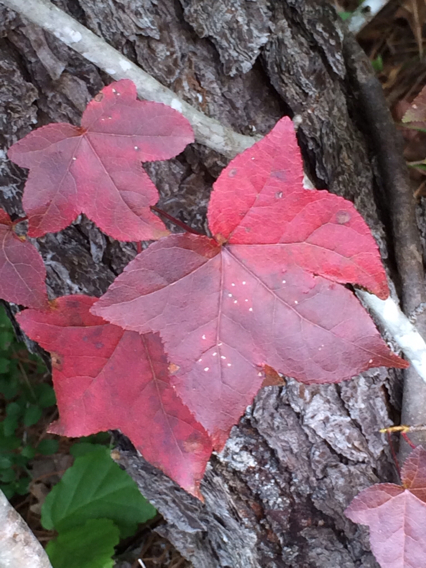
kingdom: Plantae
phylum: Tracheophyta
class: Magnoliopsida
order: Saxifragales
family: Altingiaceae
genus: Liquidambar
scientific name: Liquidambar styraciflua
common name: Sweet gum
